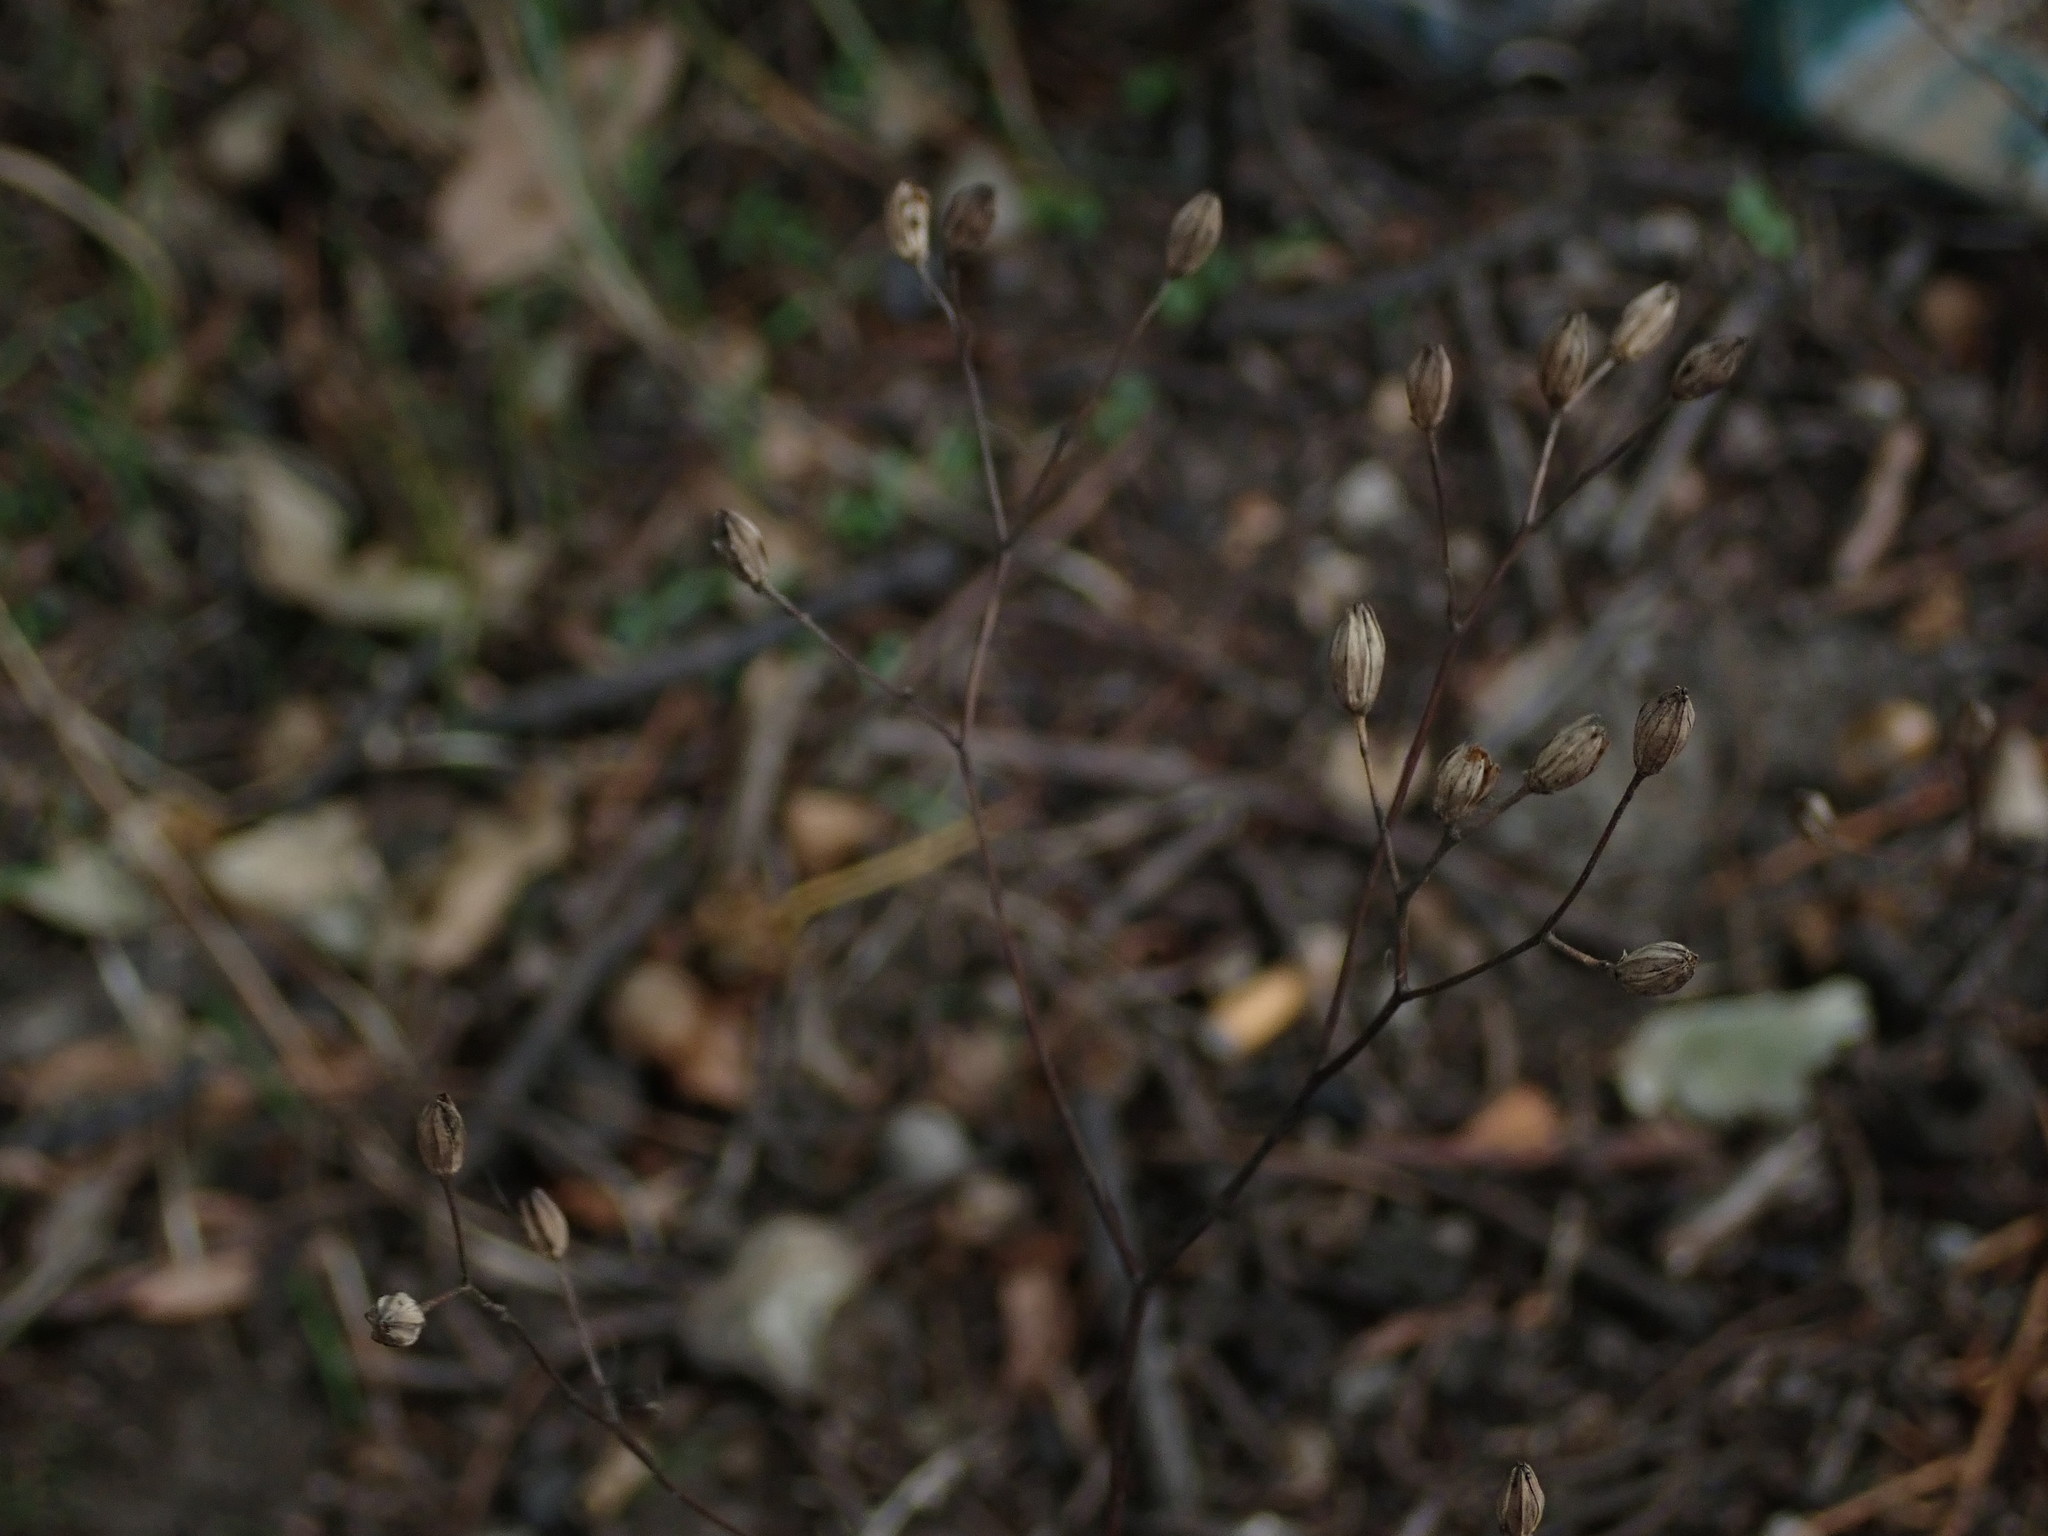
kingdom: Plantae
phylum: Tracheophyta
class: Magnoliopsida
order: Asterales
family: Asteraceae
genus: Lapsana
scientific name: Lapsana communis
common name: Nipplewort
